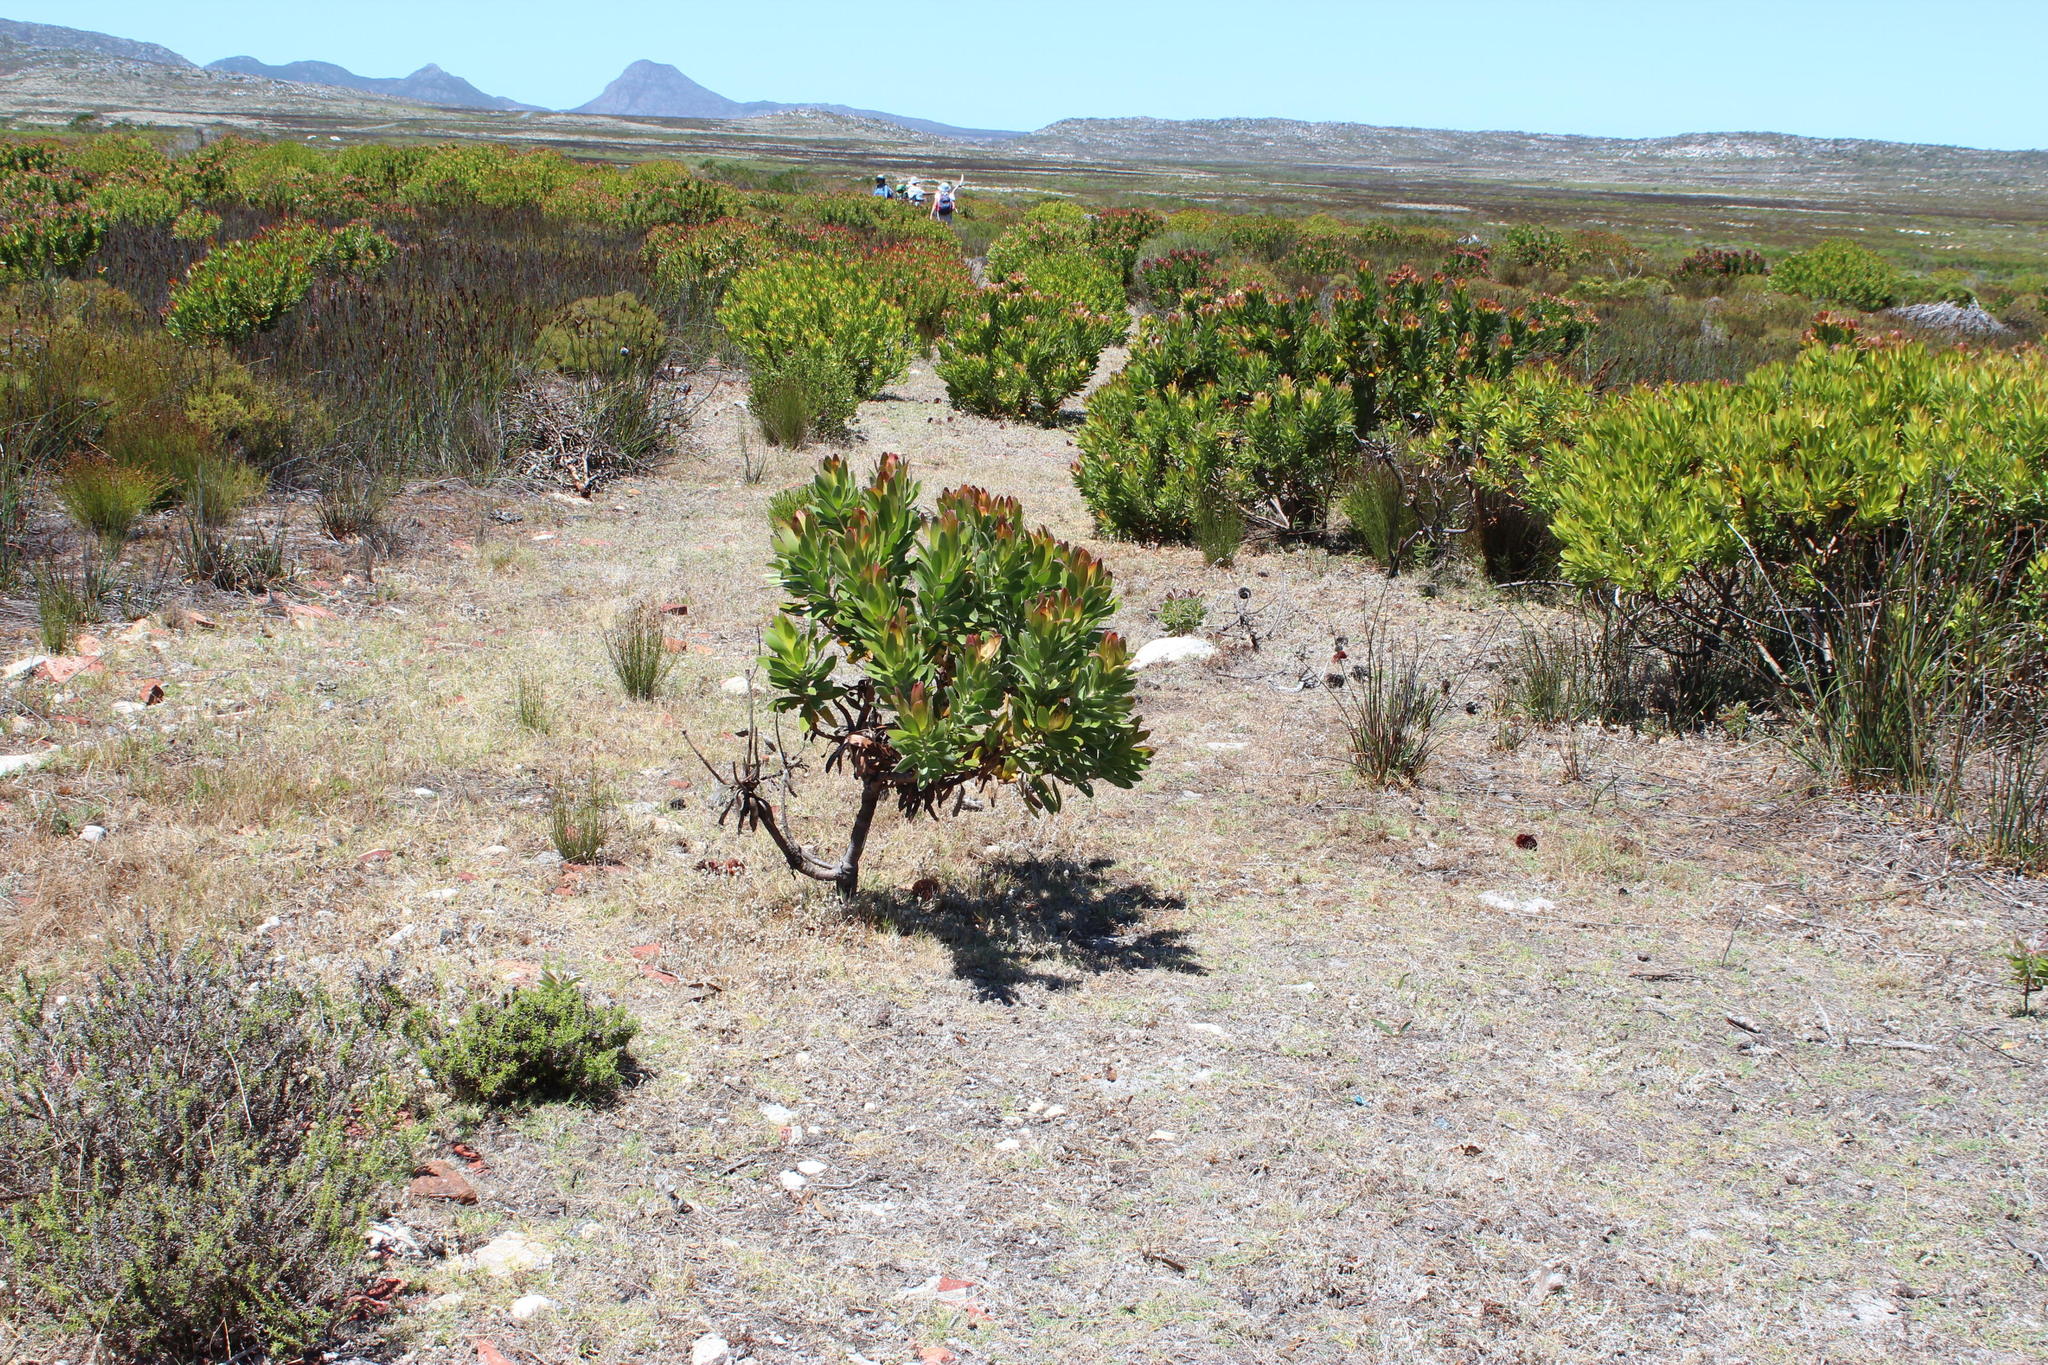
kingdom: Plantae
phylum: Tracheophyta
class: Magnoliopsida
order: Proteales
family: Proteaceae
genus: Leucadendron
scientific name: Leucadendron laureolum
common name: Golden sunshinebush
